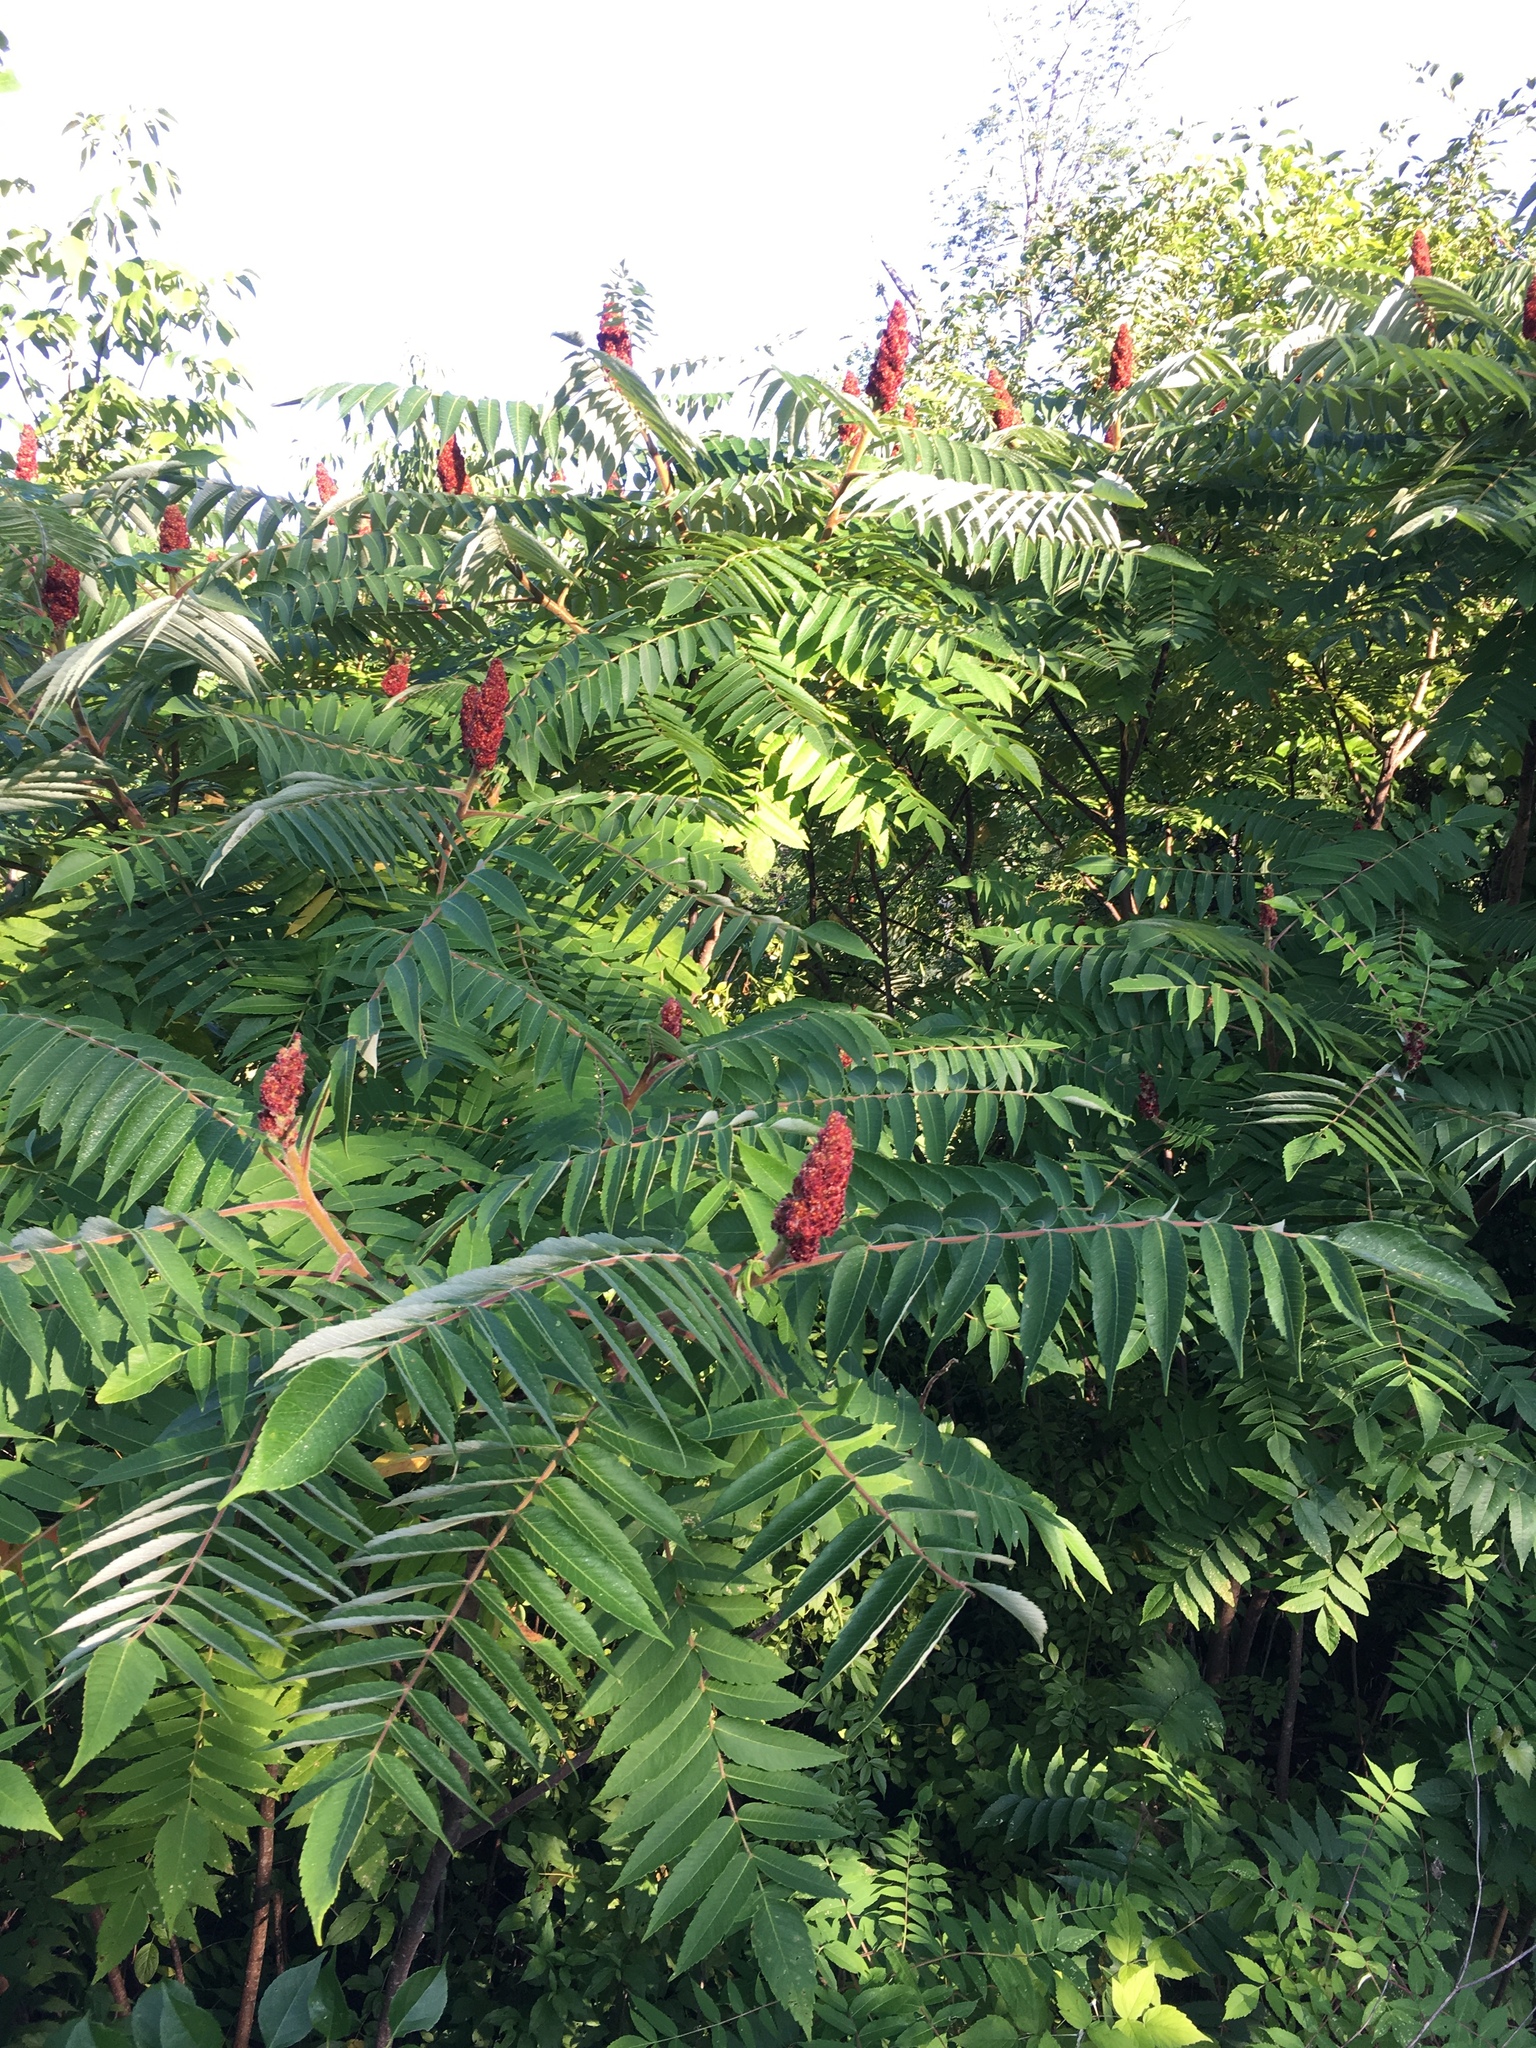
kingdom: Plantae
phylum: Tracheophyta
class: Magnoliopsida
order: Sapindales
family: Anacardiaceae
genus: Rhus
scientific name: Rhus typhina
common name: Staghorn sumac
